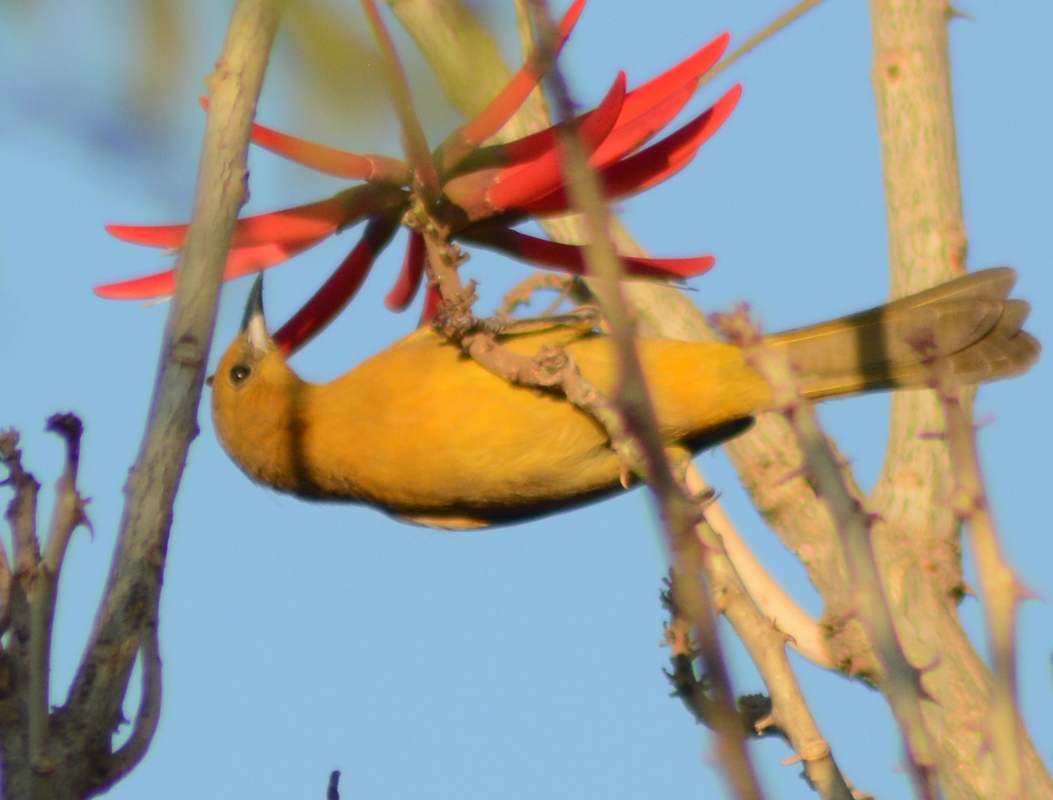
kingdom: Animalia
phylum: Chordata
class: Aves
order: Passeriformes
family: Icteridae
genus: Icterus
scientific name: Icterus cucullatus
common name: Hooded oriole
